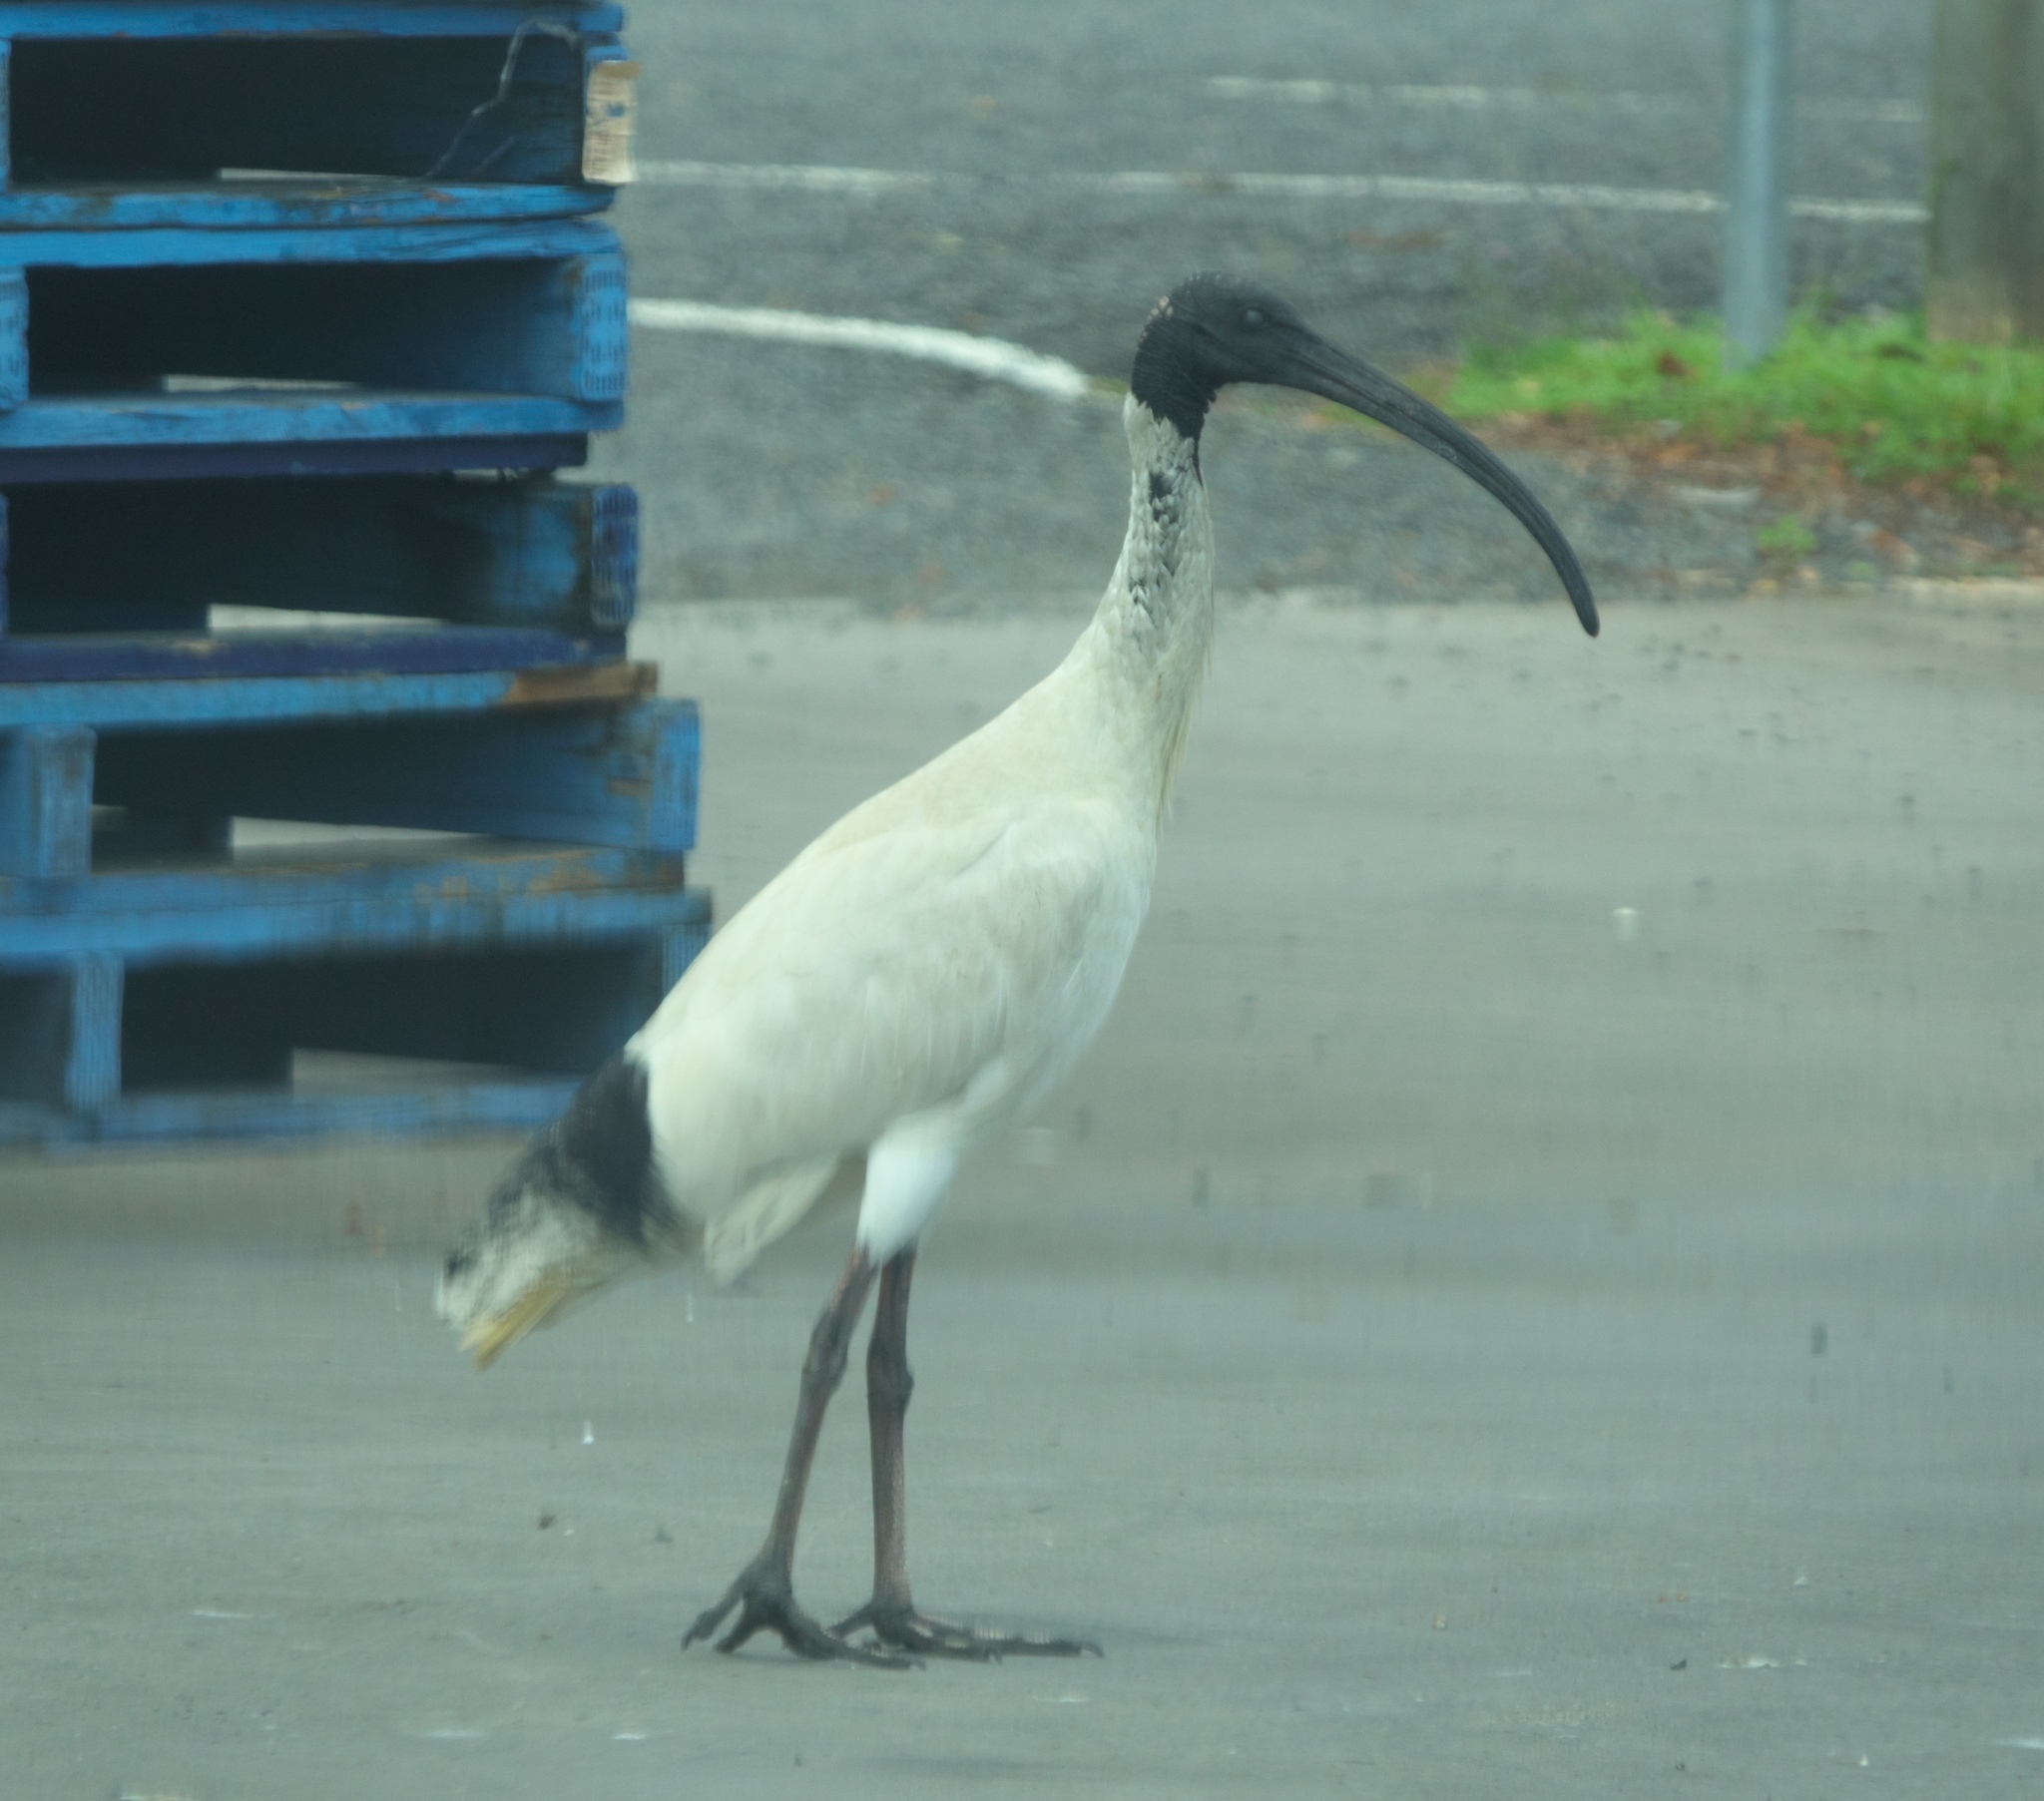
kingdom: Animalia
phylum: Chordata
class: Aves
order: Pelecaniformes
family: Threskiornithidae
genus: Threskiornis
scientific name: Threskiornis molucca
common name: Australian white ibis
